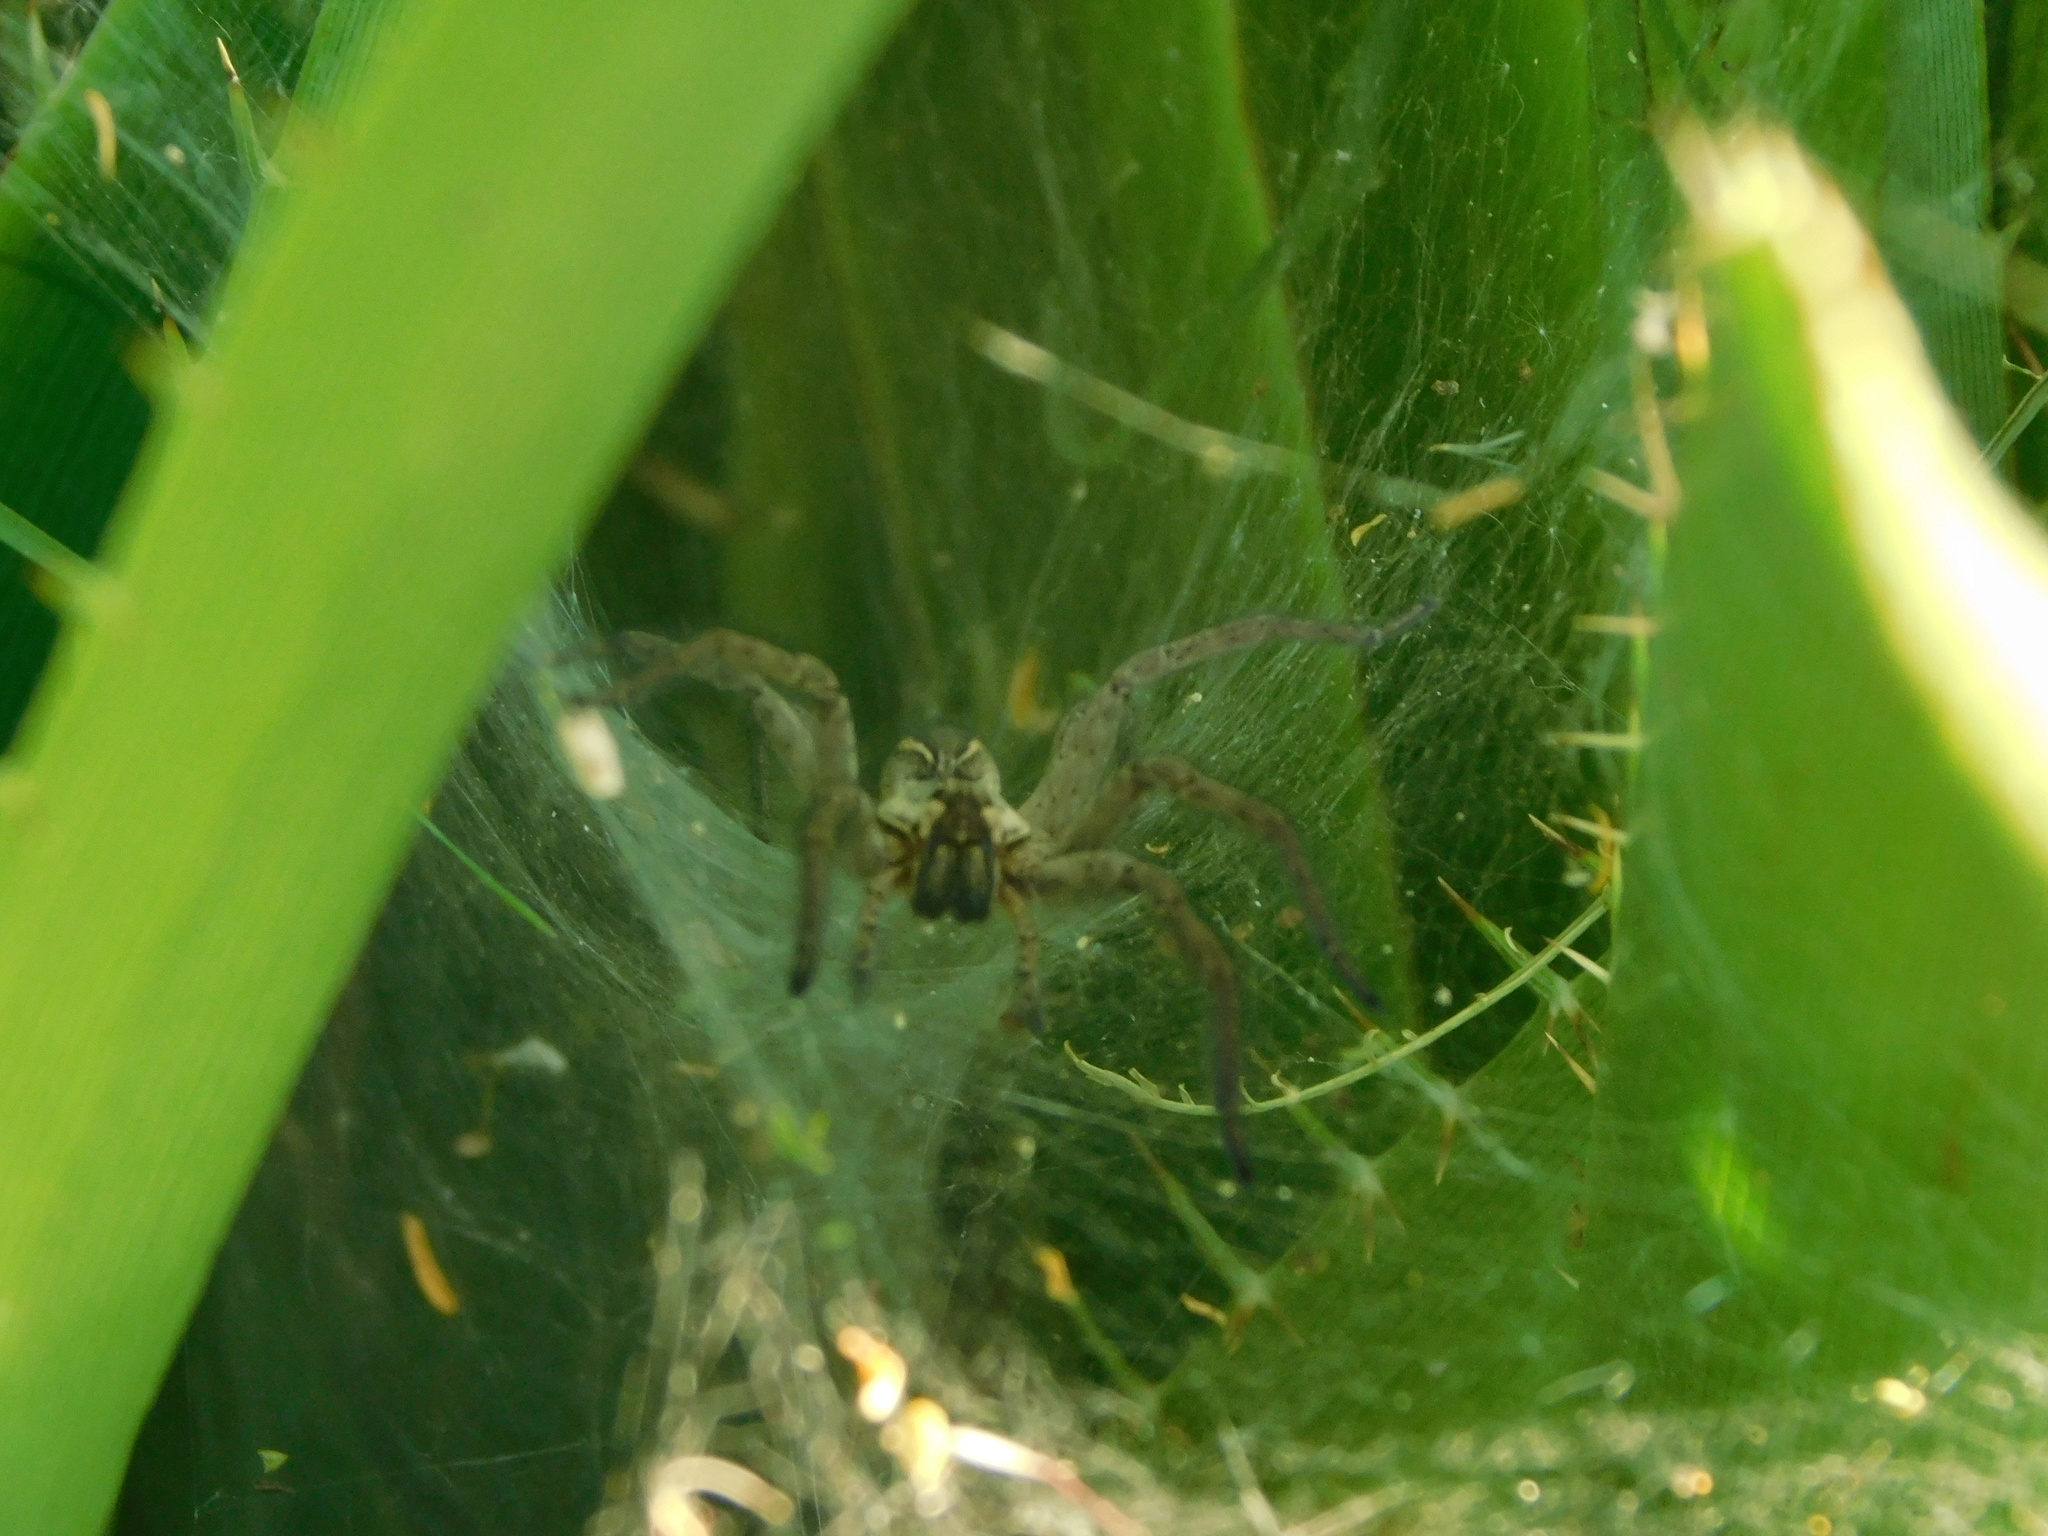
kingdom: Animalia
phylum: Arthropoda
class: Arachnida
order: Araneae
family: Lycosidae
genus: Aglaoctenus
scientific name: Aglaoctenus lagotis
